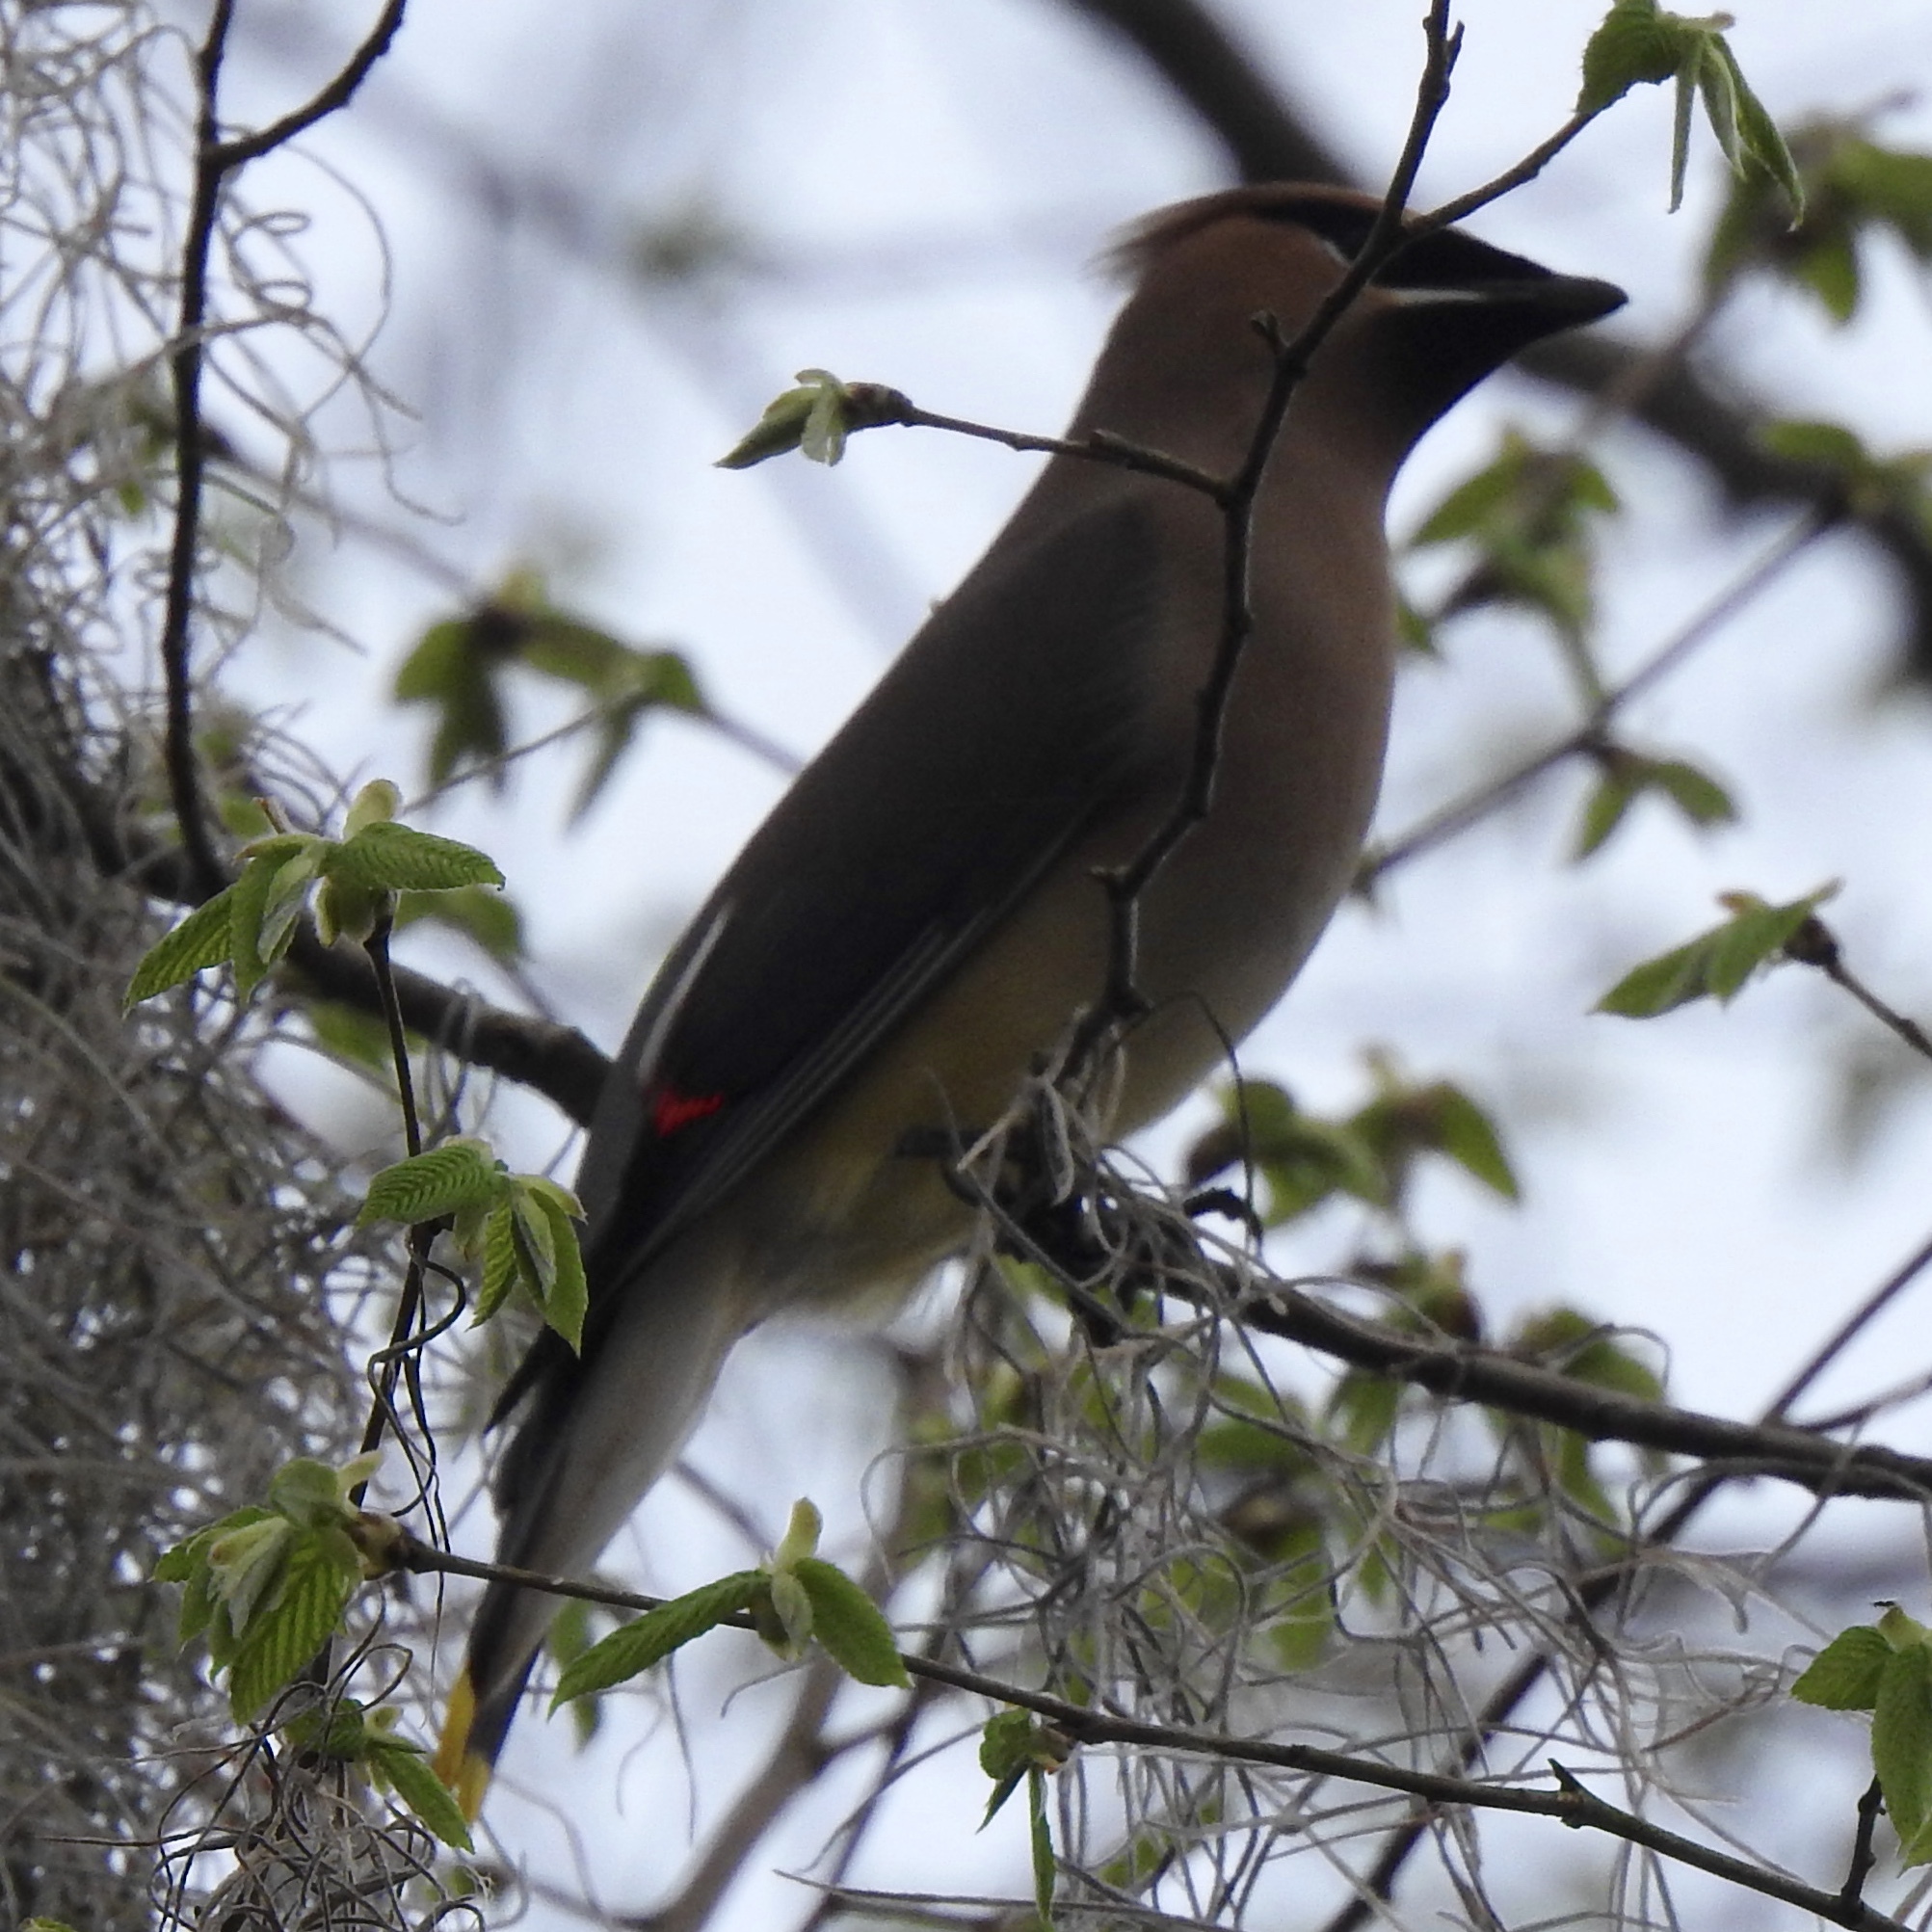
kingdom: Animalia
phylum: Chordata
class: Aves
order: Passeriformes
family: Bombycillidae
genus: Bombycilla
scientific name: Bombycilla cedrorum
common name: Cedar waxwing
